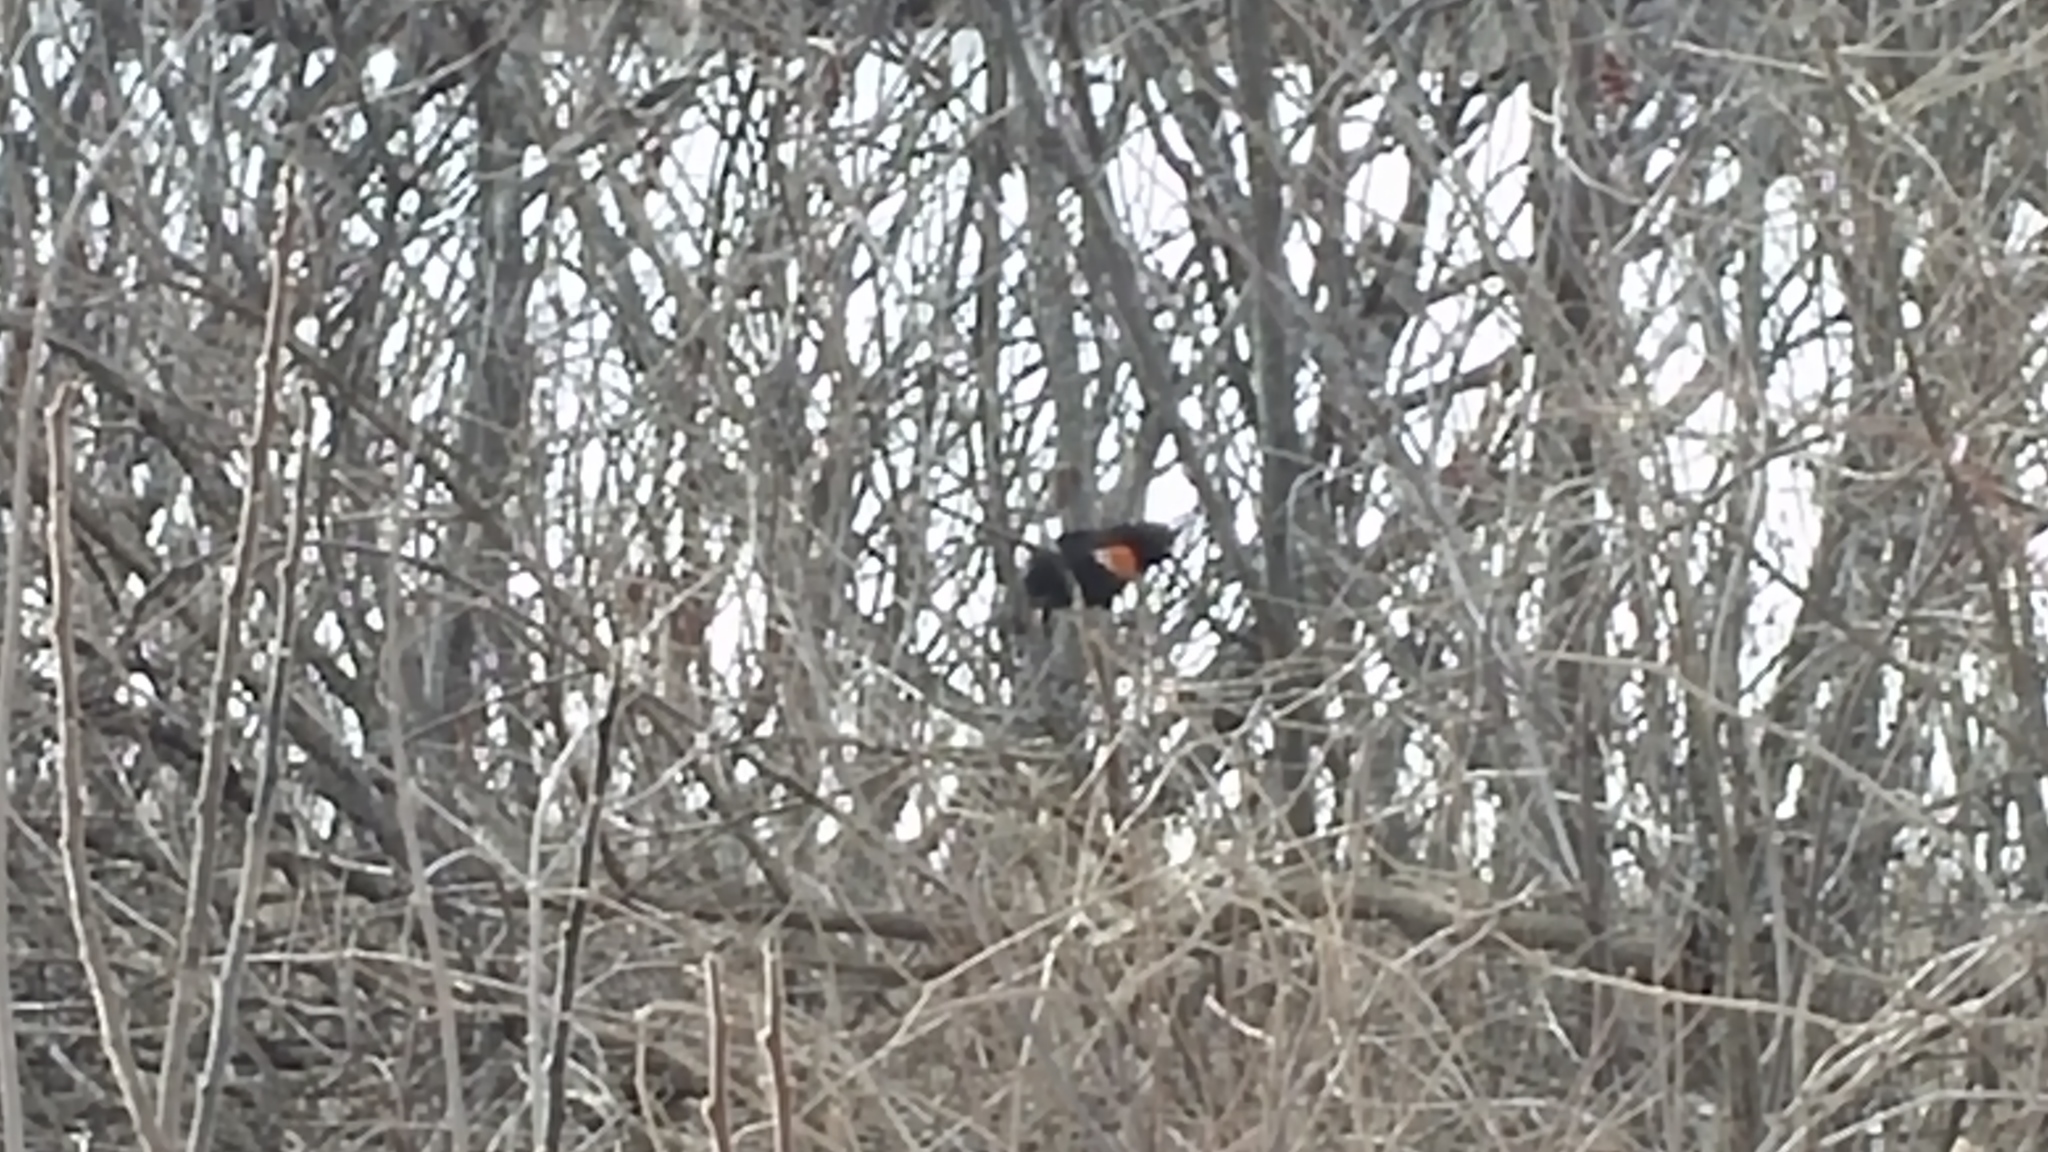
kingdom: Animalia
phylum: Chordata
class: Aves
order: Passeriformes
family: Icteridae
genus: Agelaius
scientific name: Agelaius phoeniceus
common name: Red-winged blackbird
